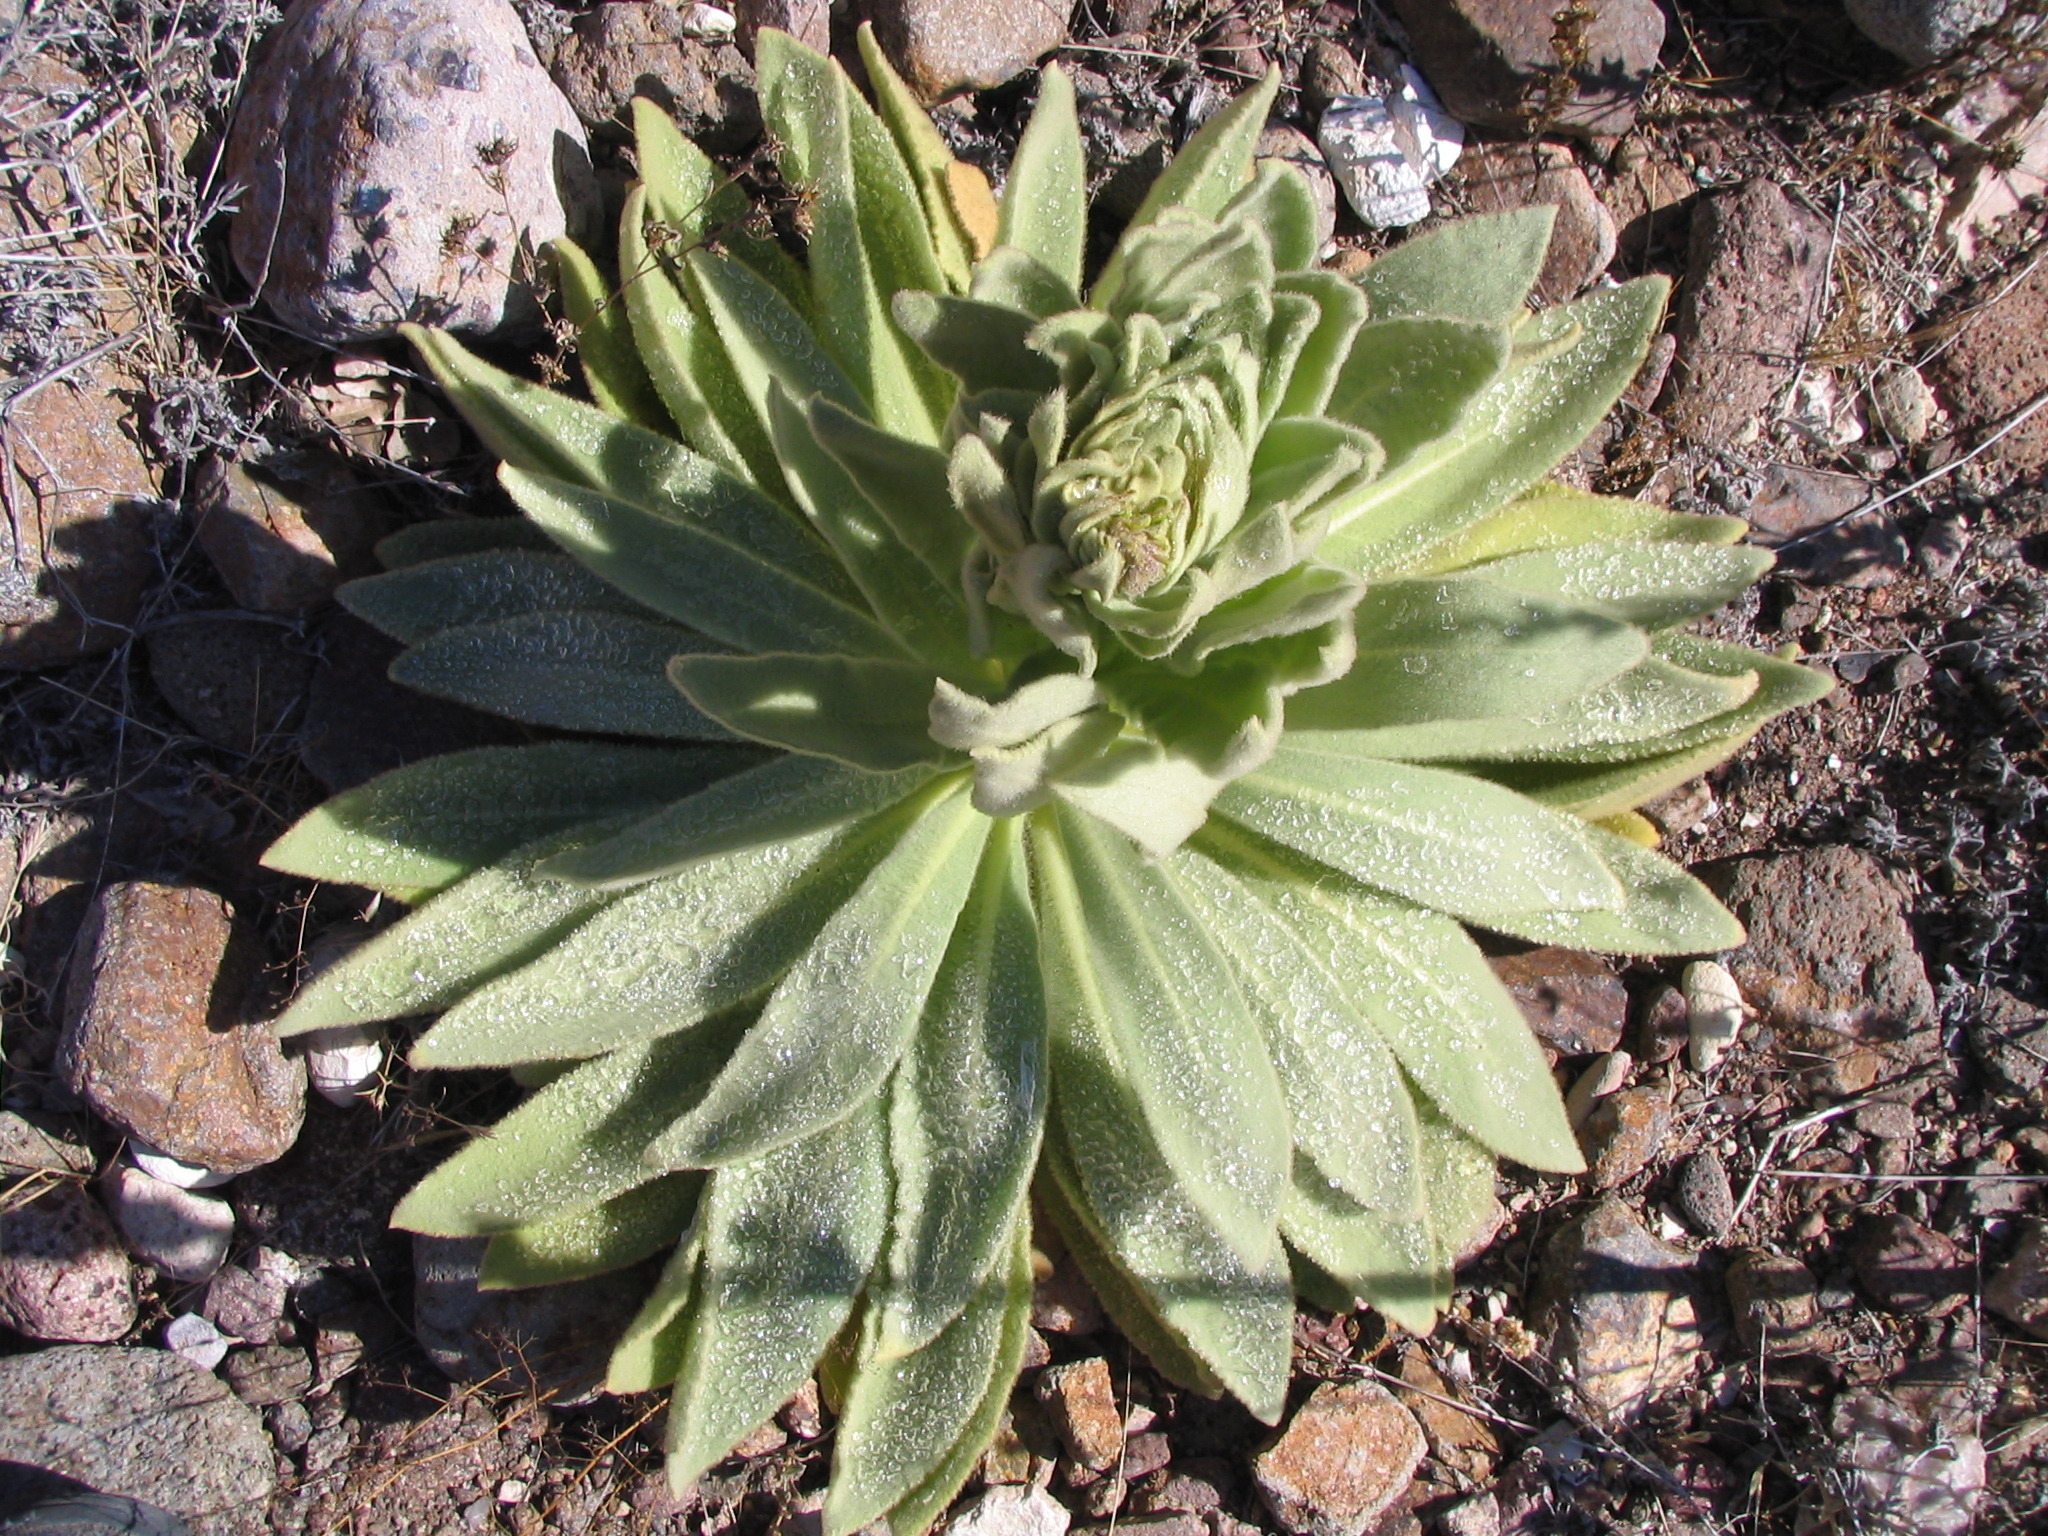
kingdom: Plantae
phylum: Tracheophyta
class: Magnoliopsida
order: Lamiales
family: Scrophulariaceae
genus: Verbascum
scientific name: Verbascum thapsus
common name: Common mullein
